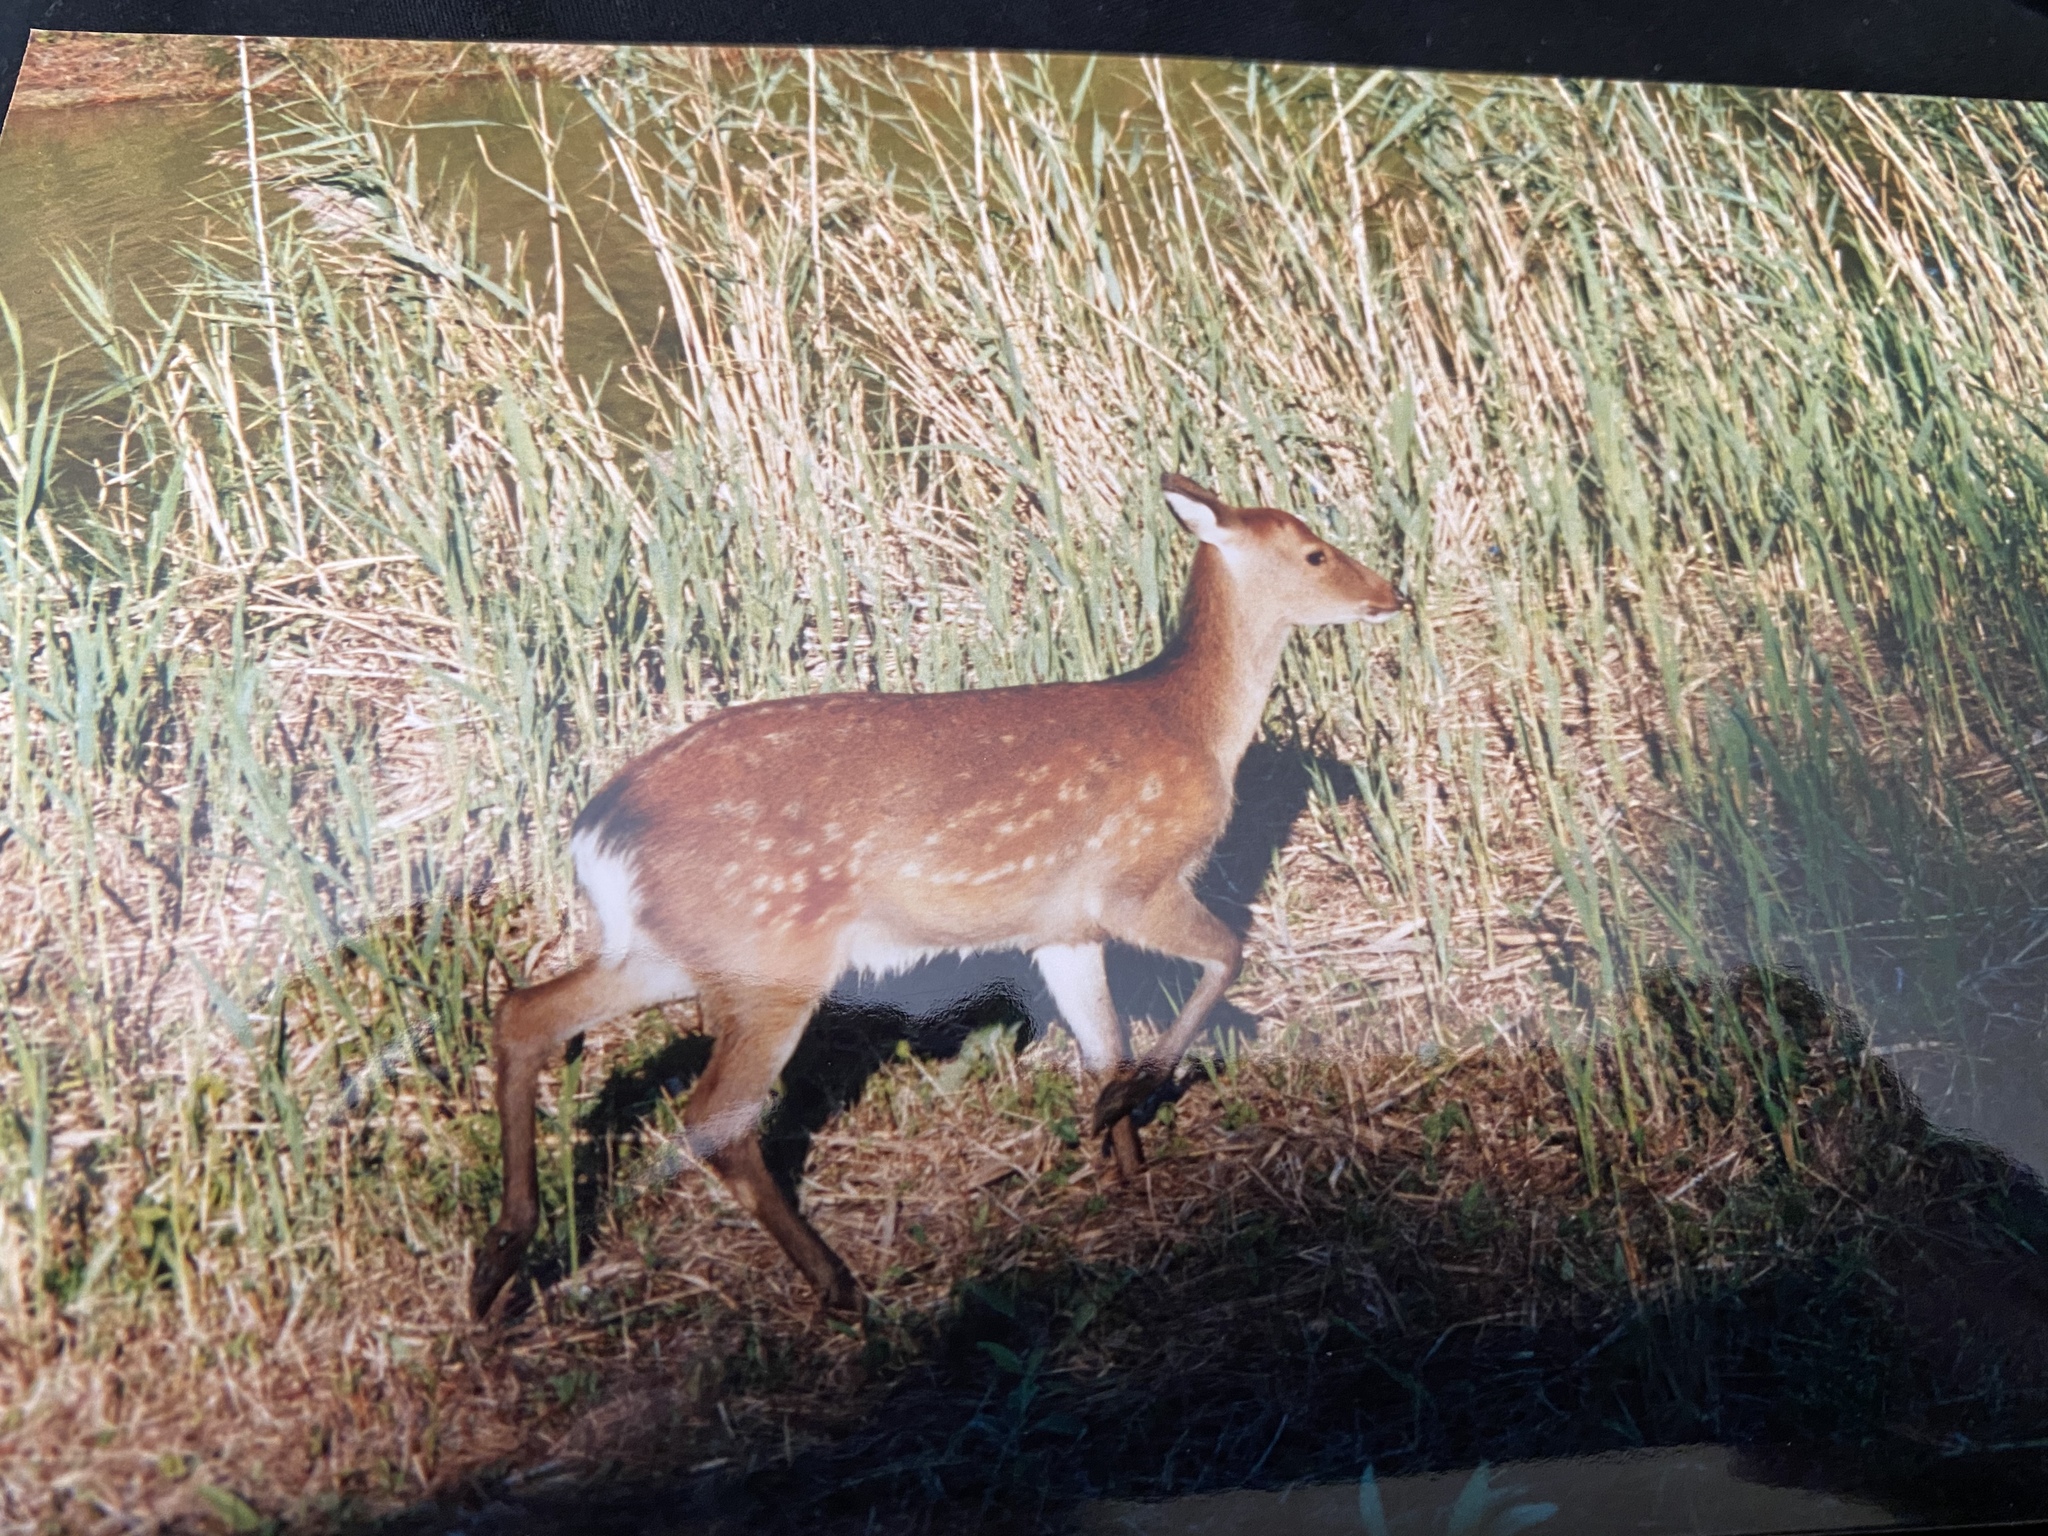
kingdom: Animalia
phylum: Chordata
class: Mammalia
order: Artiodactyla
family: Cervidae
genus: Cervus
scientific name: Cervus nippon
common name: Sika deer
